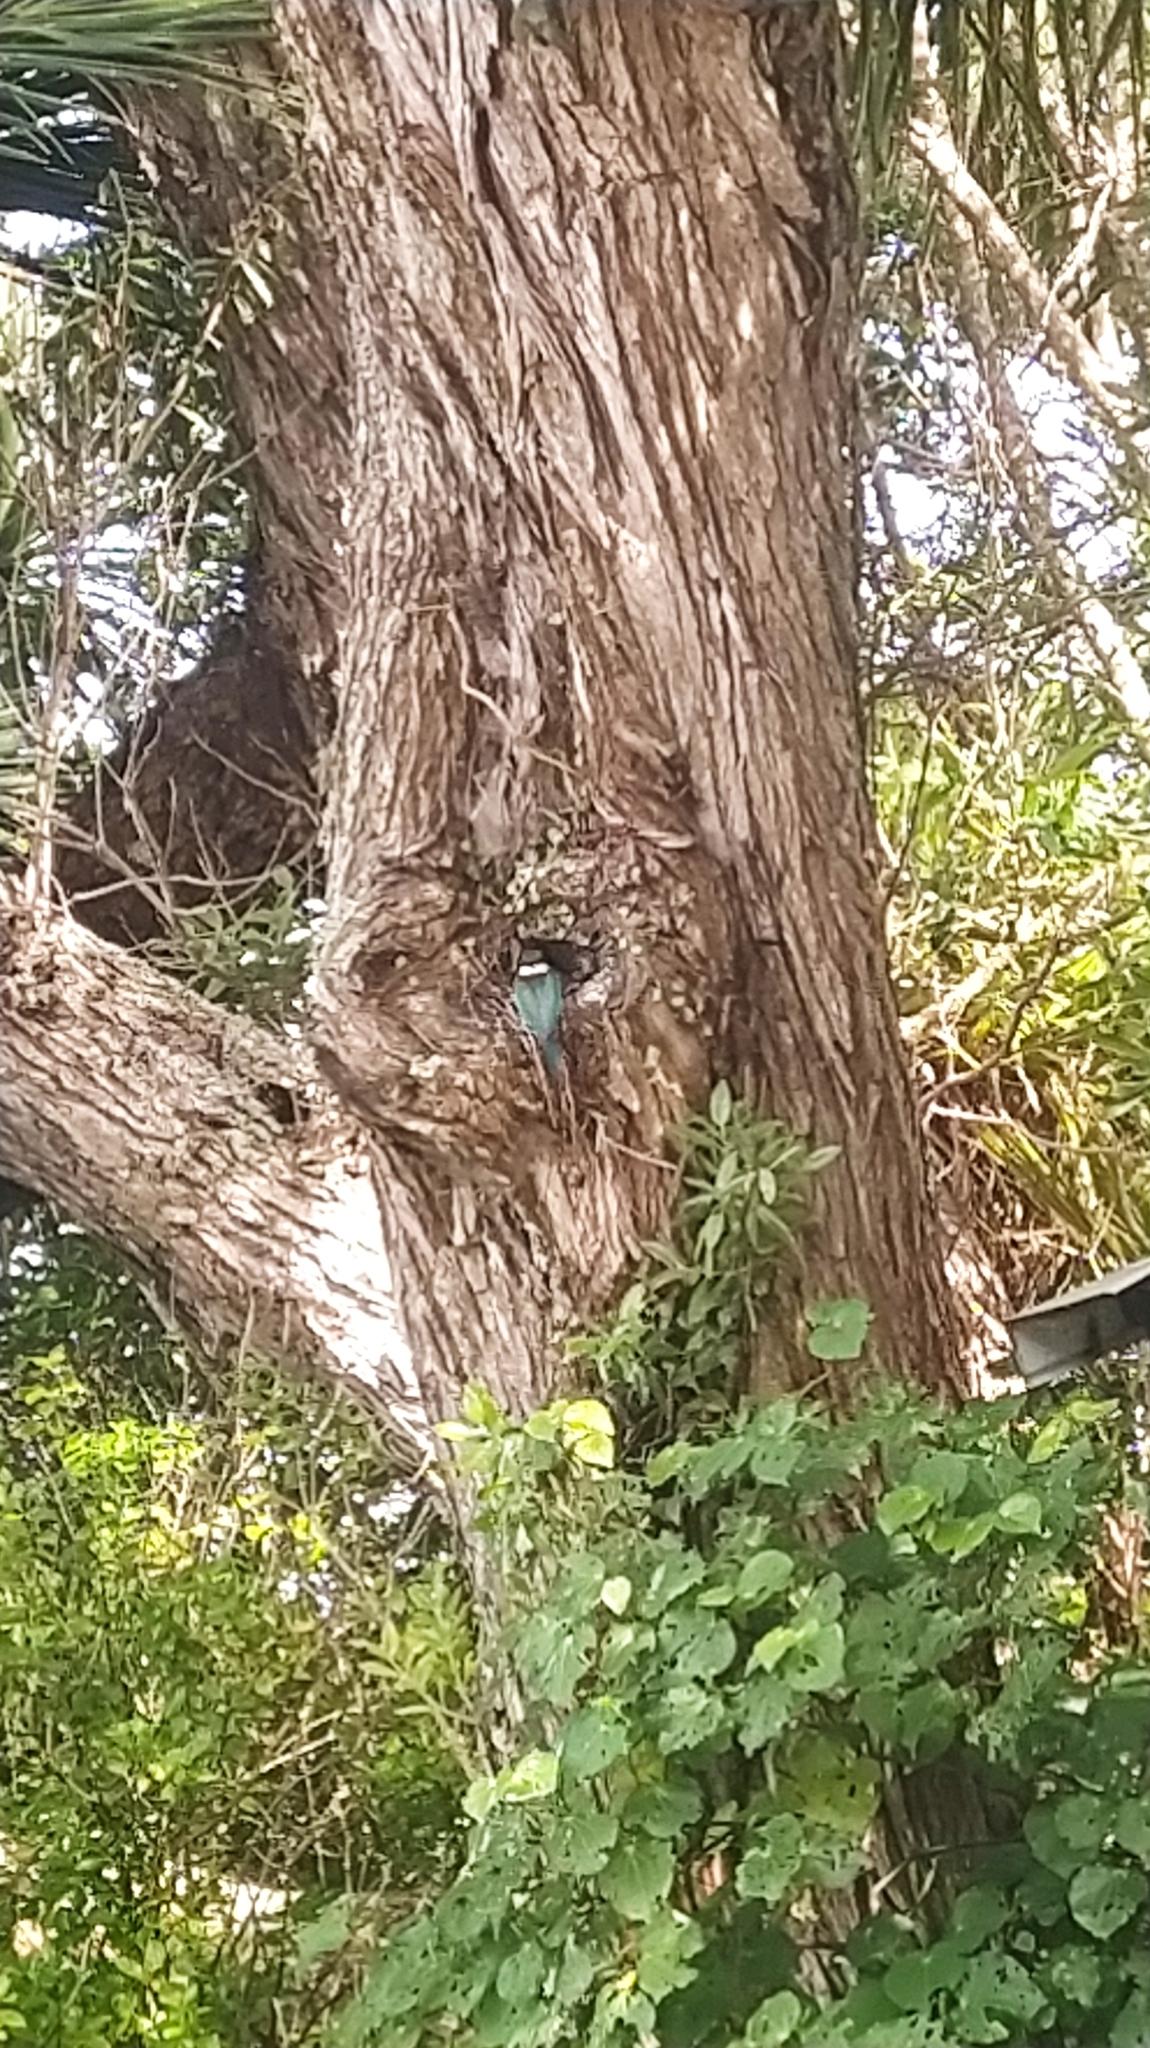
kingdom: Animalia
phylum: Chordata
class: Aves
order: Coraciiformes
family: Alcedinidae
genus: Todiramphus
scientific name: Todiramphus sanctus
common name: Sacred kingfisher
